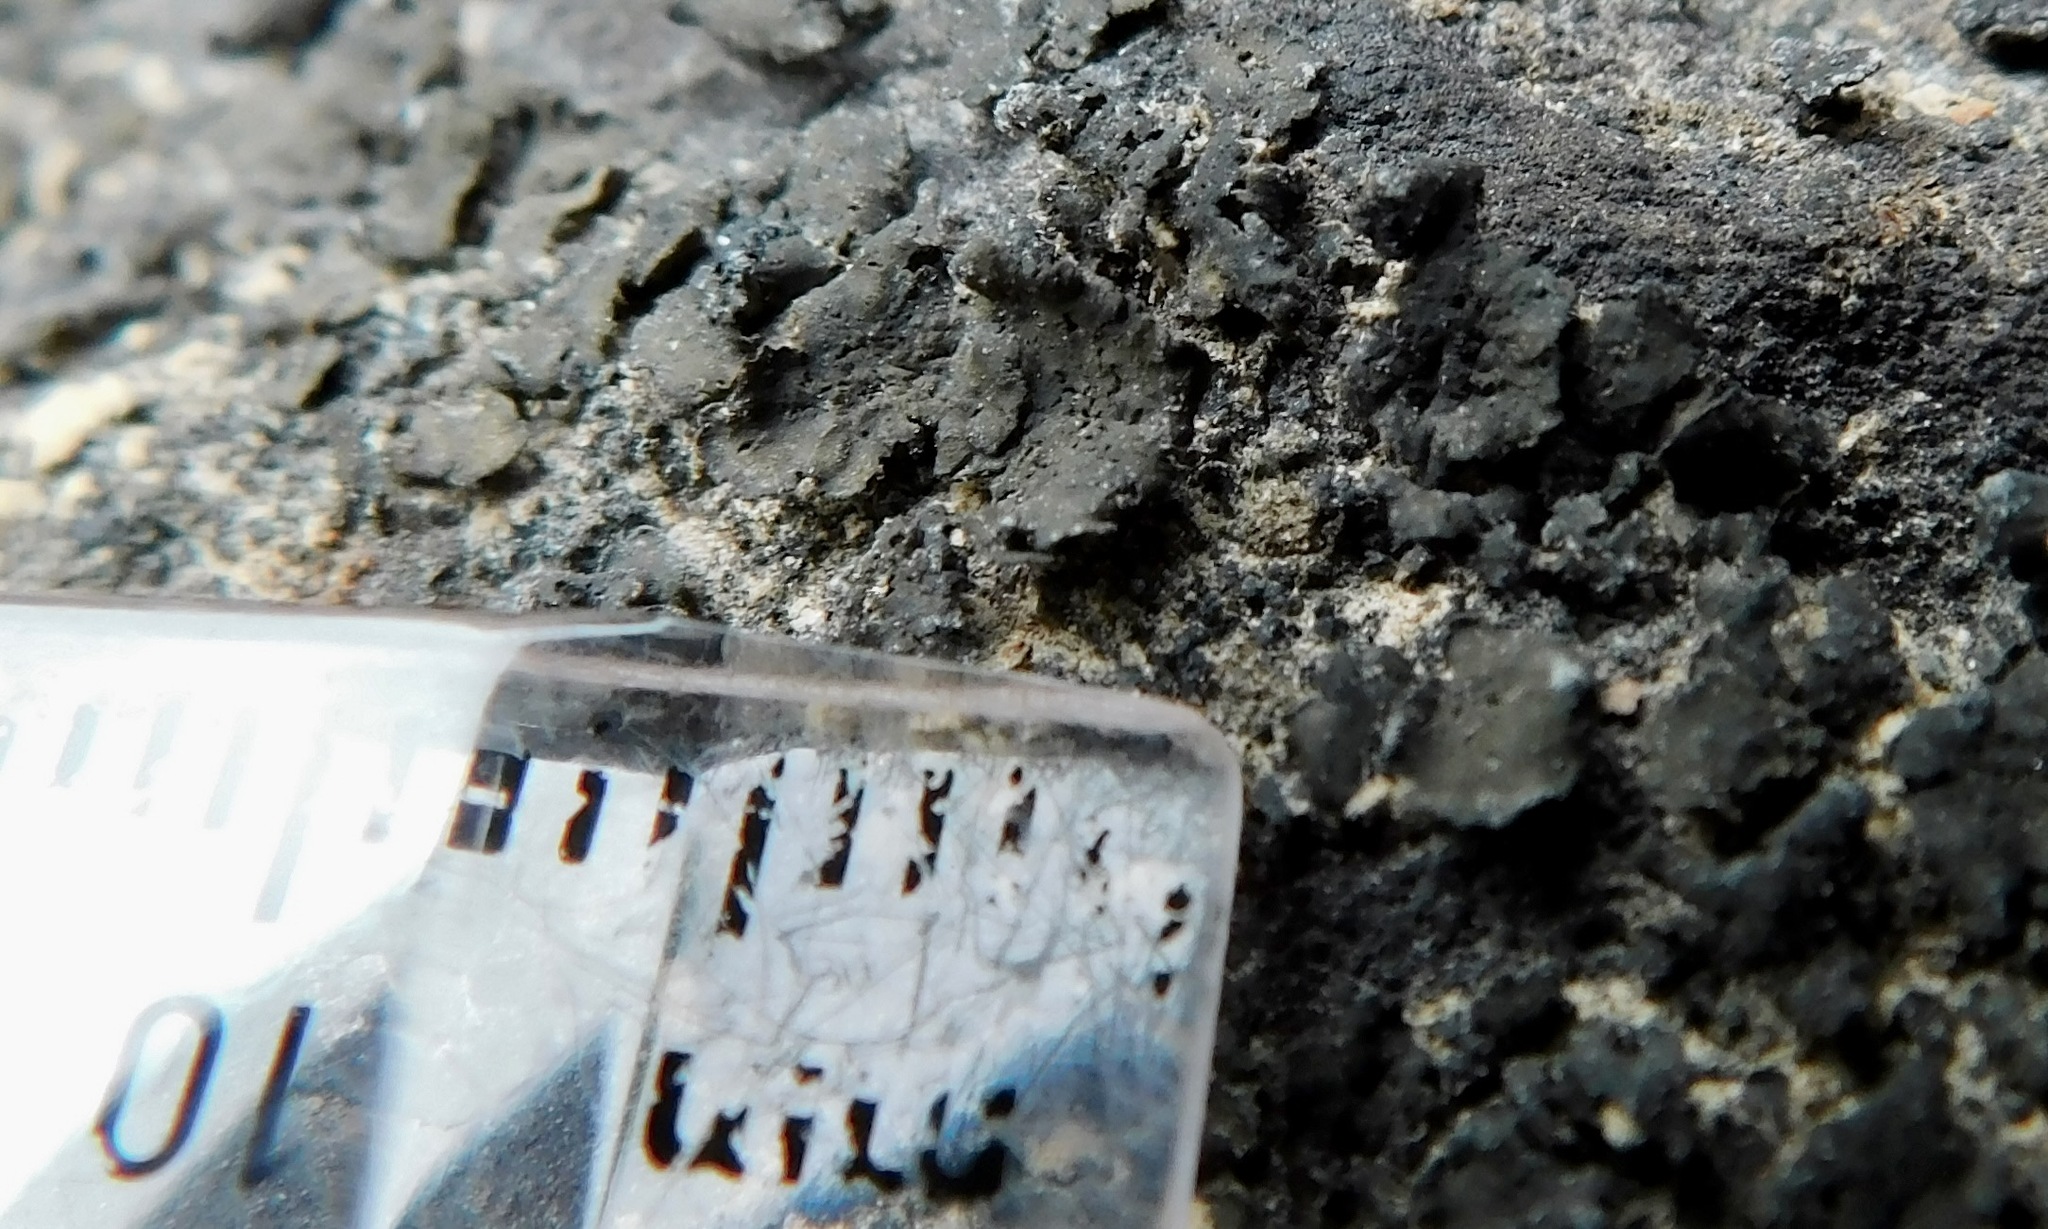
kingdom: Fungi
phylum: Ascomycota
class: Lichinomycetes
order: Lichinales
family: Peltulaceae
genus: Peltula
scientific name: Peltula euploca
